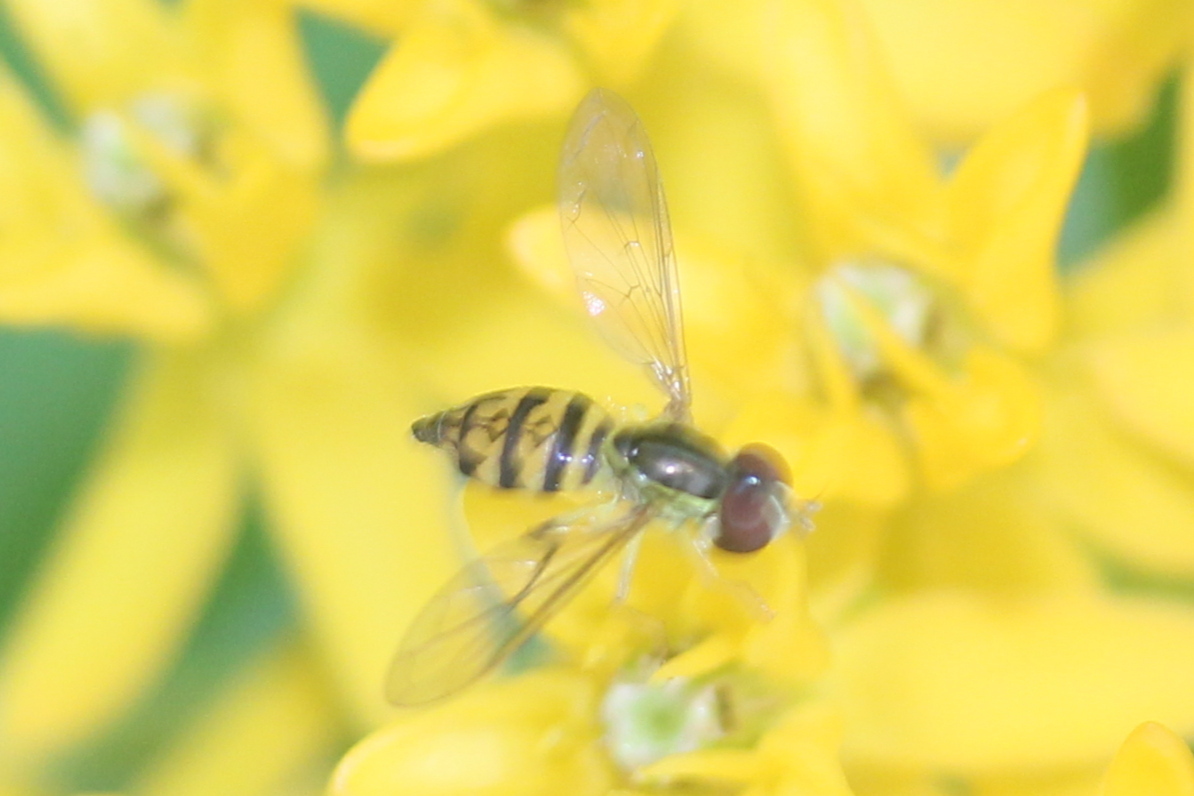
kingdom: Animalia
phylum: Arthropoda
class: Insecta
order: Diptera
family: Syrphidae
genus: Toxomerus
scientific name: Toxomerus geminatus
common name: Eastern calligrapher
